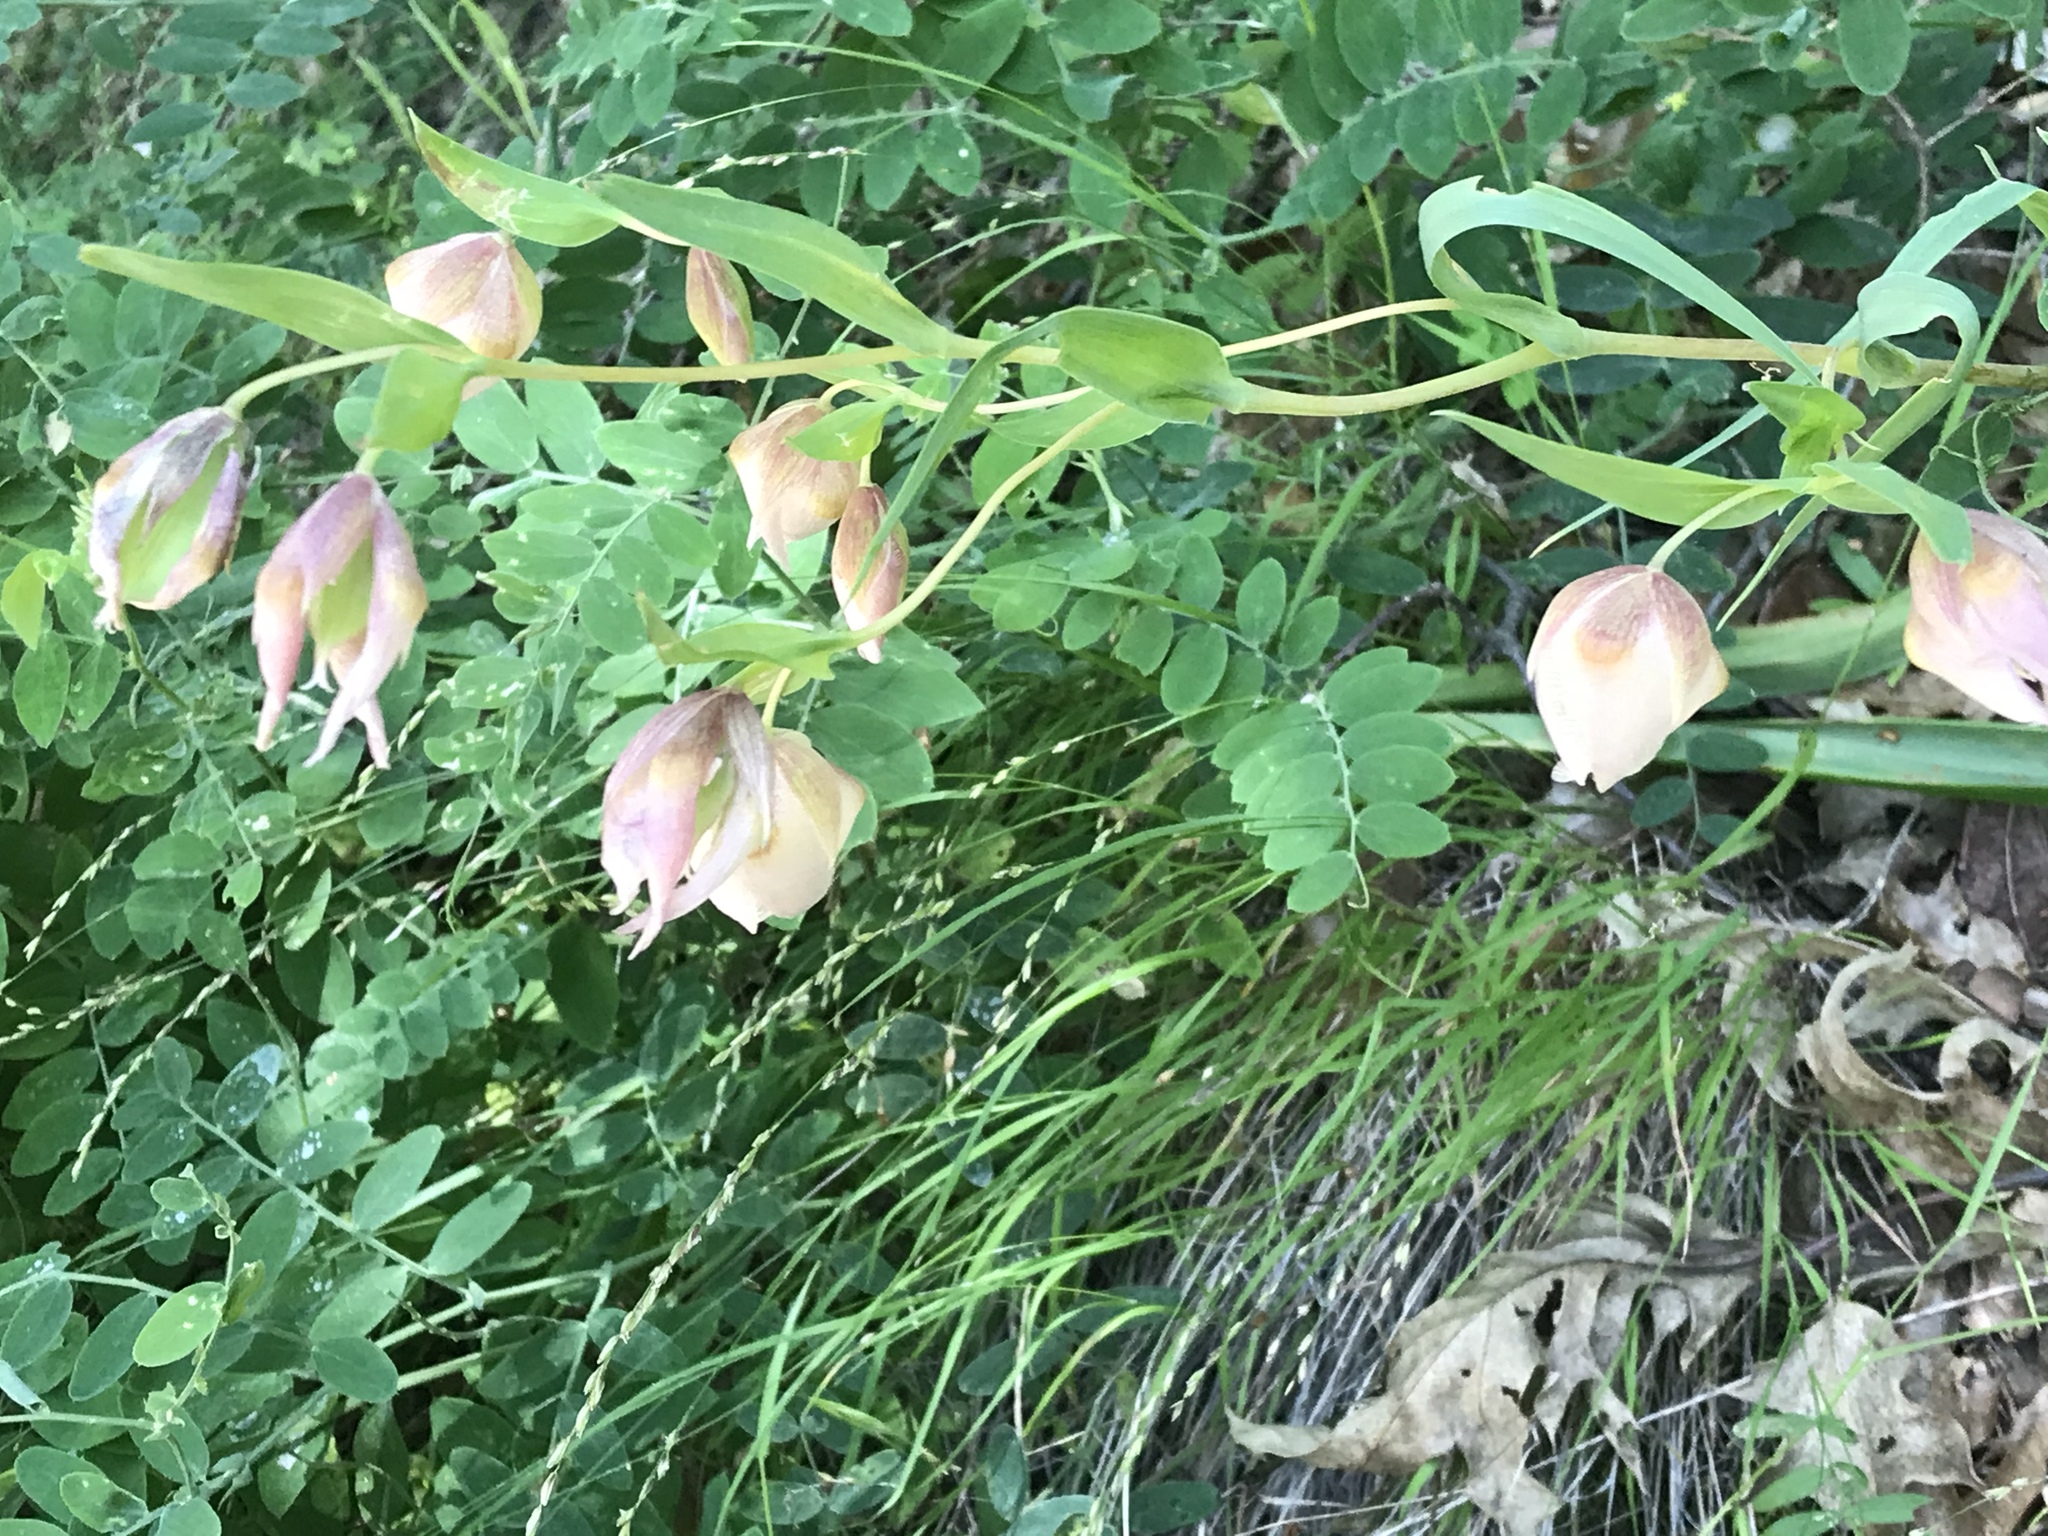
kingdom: Plantae
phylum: Tracheophyta
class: Liliopsida
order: Liliales
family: Liliaceae
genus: Calochortus
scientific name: Calochortus albus
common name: Fairy-lantern
